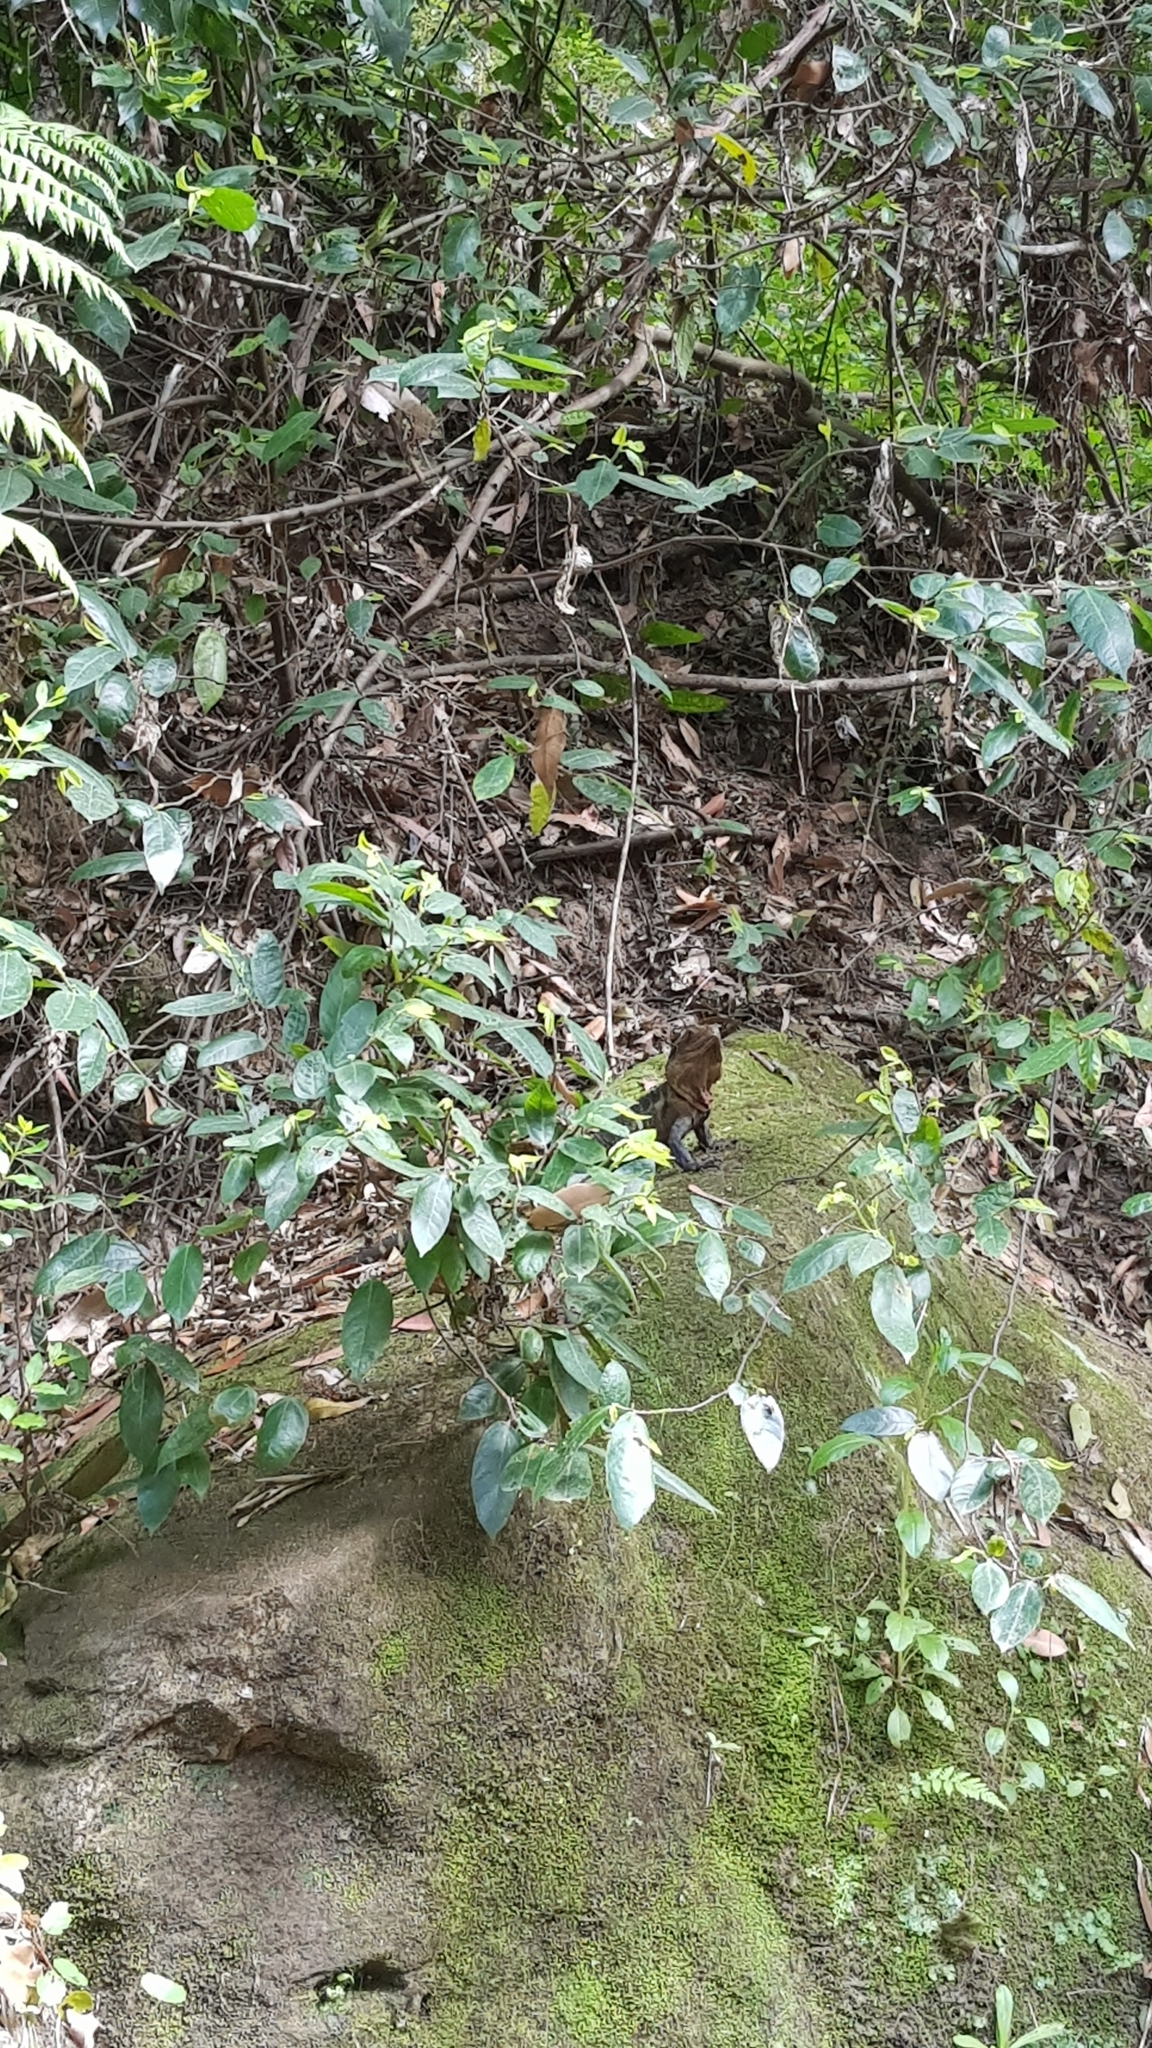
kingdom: Animalia
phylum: Chordata
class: Squamata
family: Agamidae
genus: Intellagama
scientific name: Intellagama lesueurii
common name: Eastern water dragon
